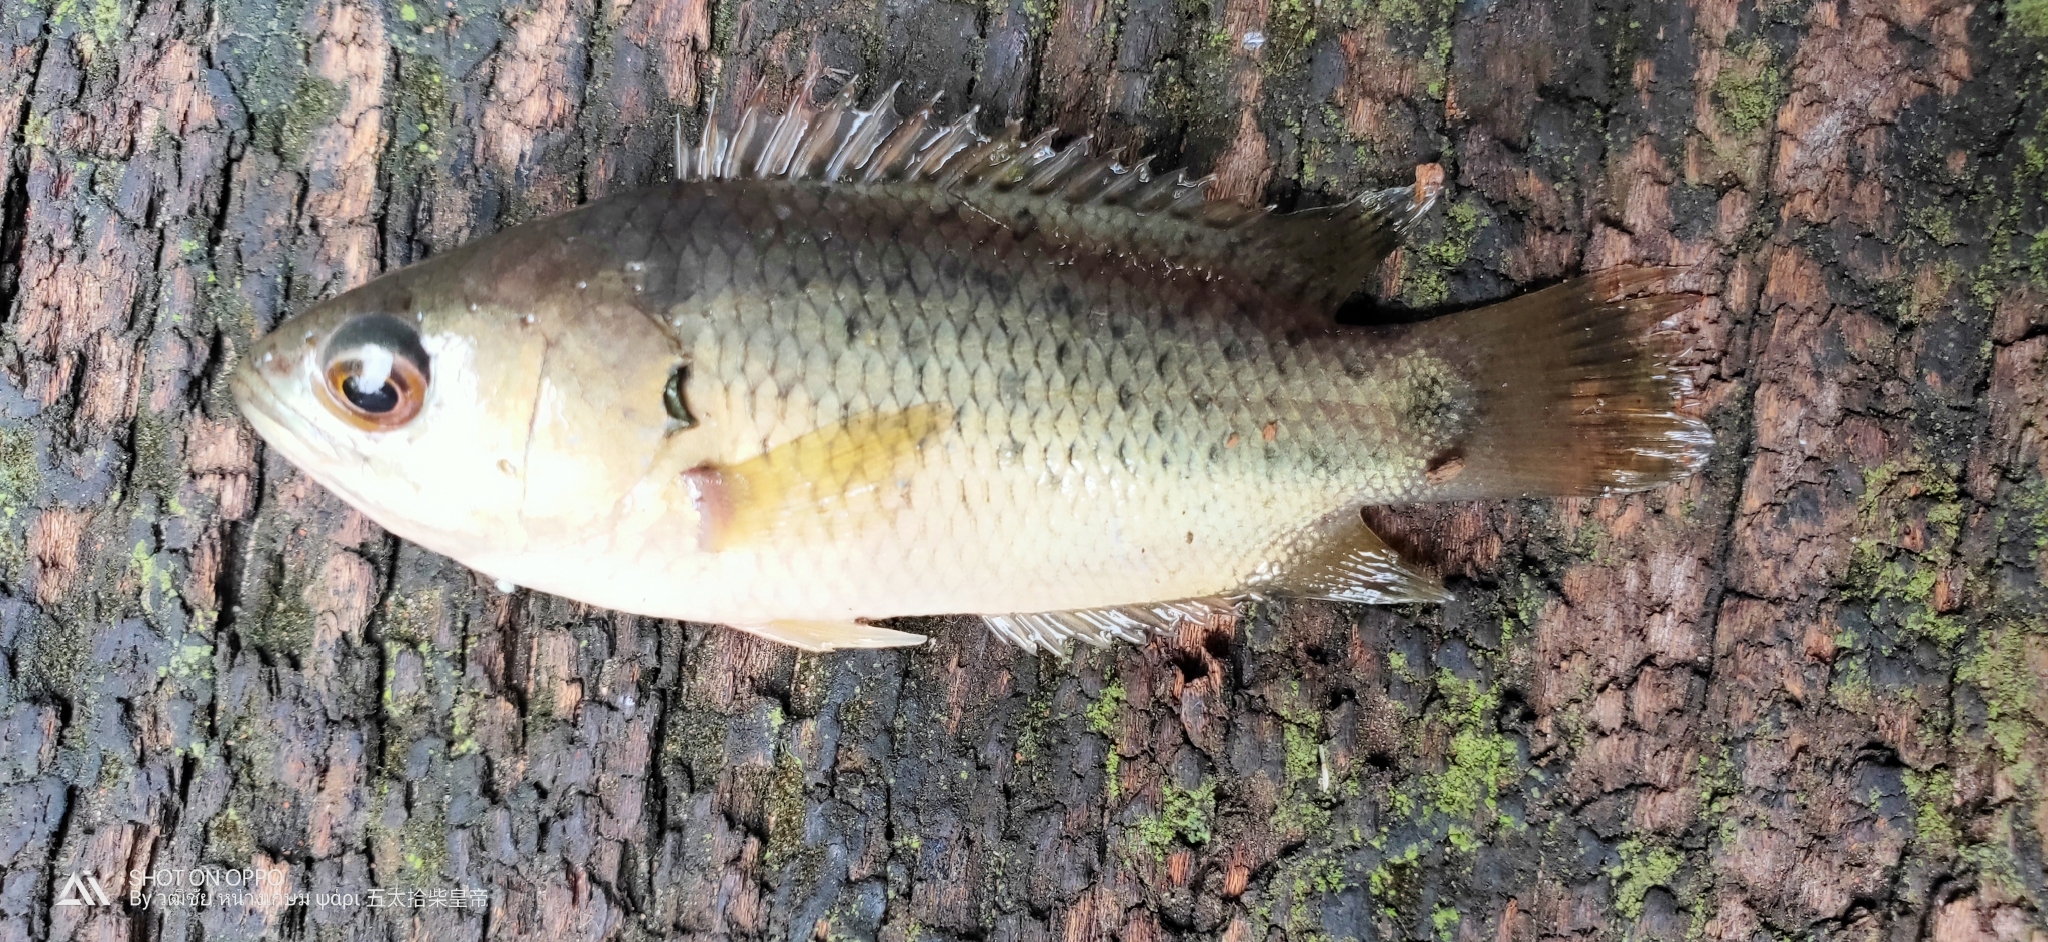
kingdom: Animalia
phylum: Chordata
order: Perciformes
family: Anabantidae
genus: Anabas
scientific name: Anabas testudineus
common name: Climbing perch
